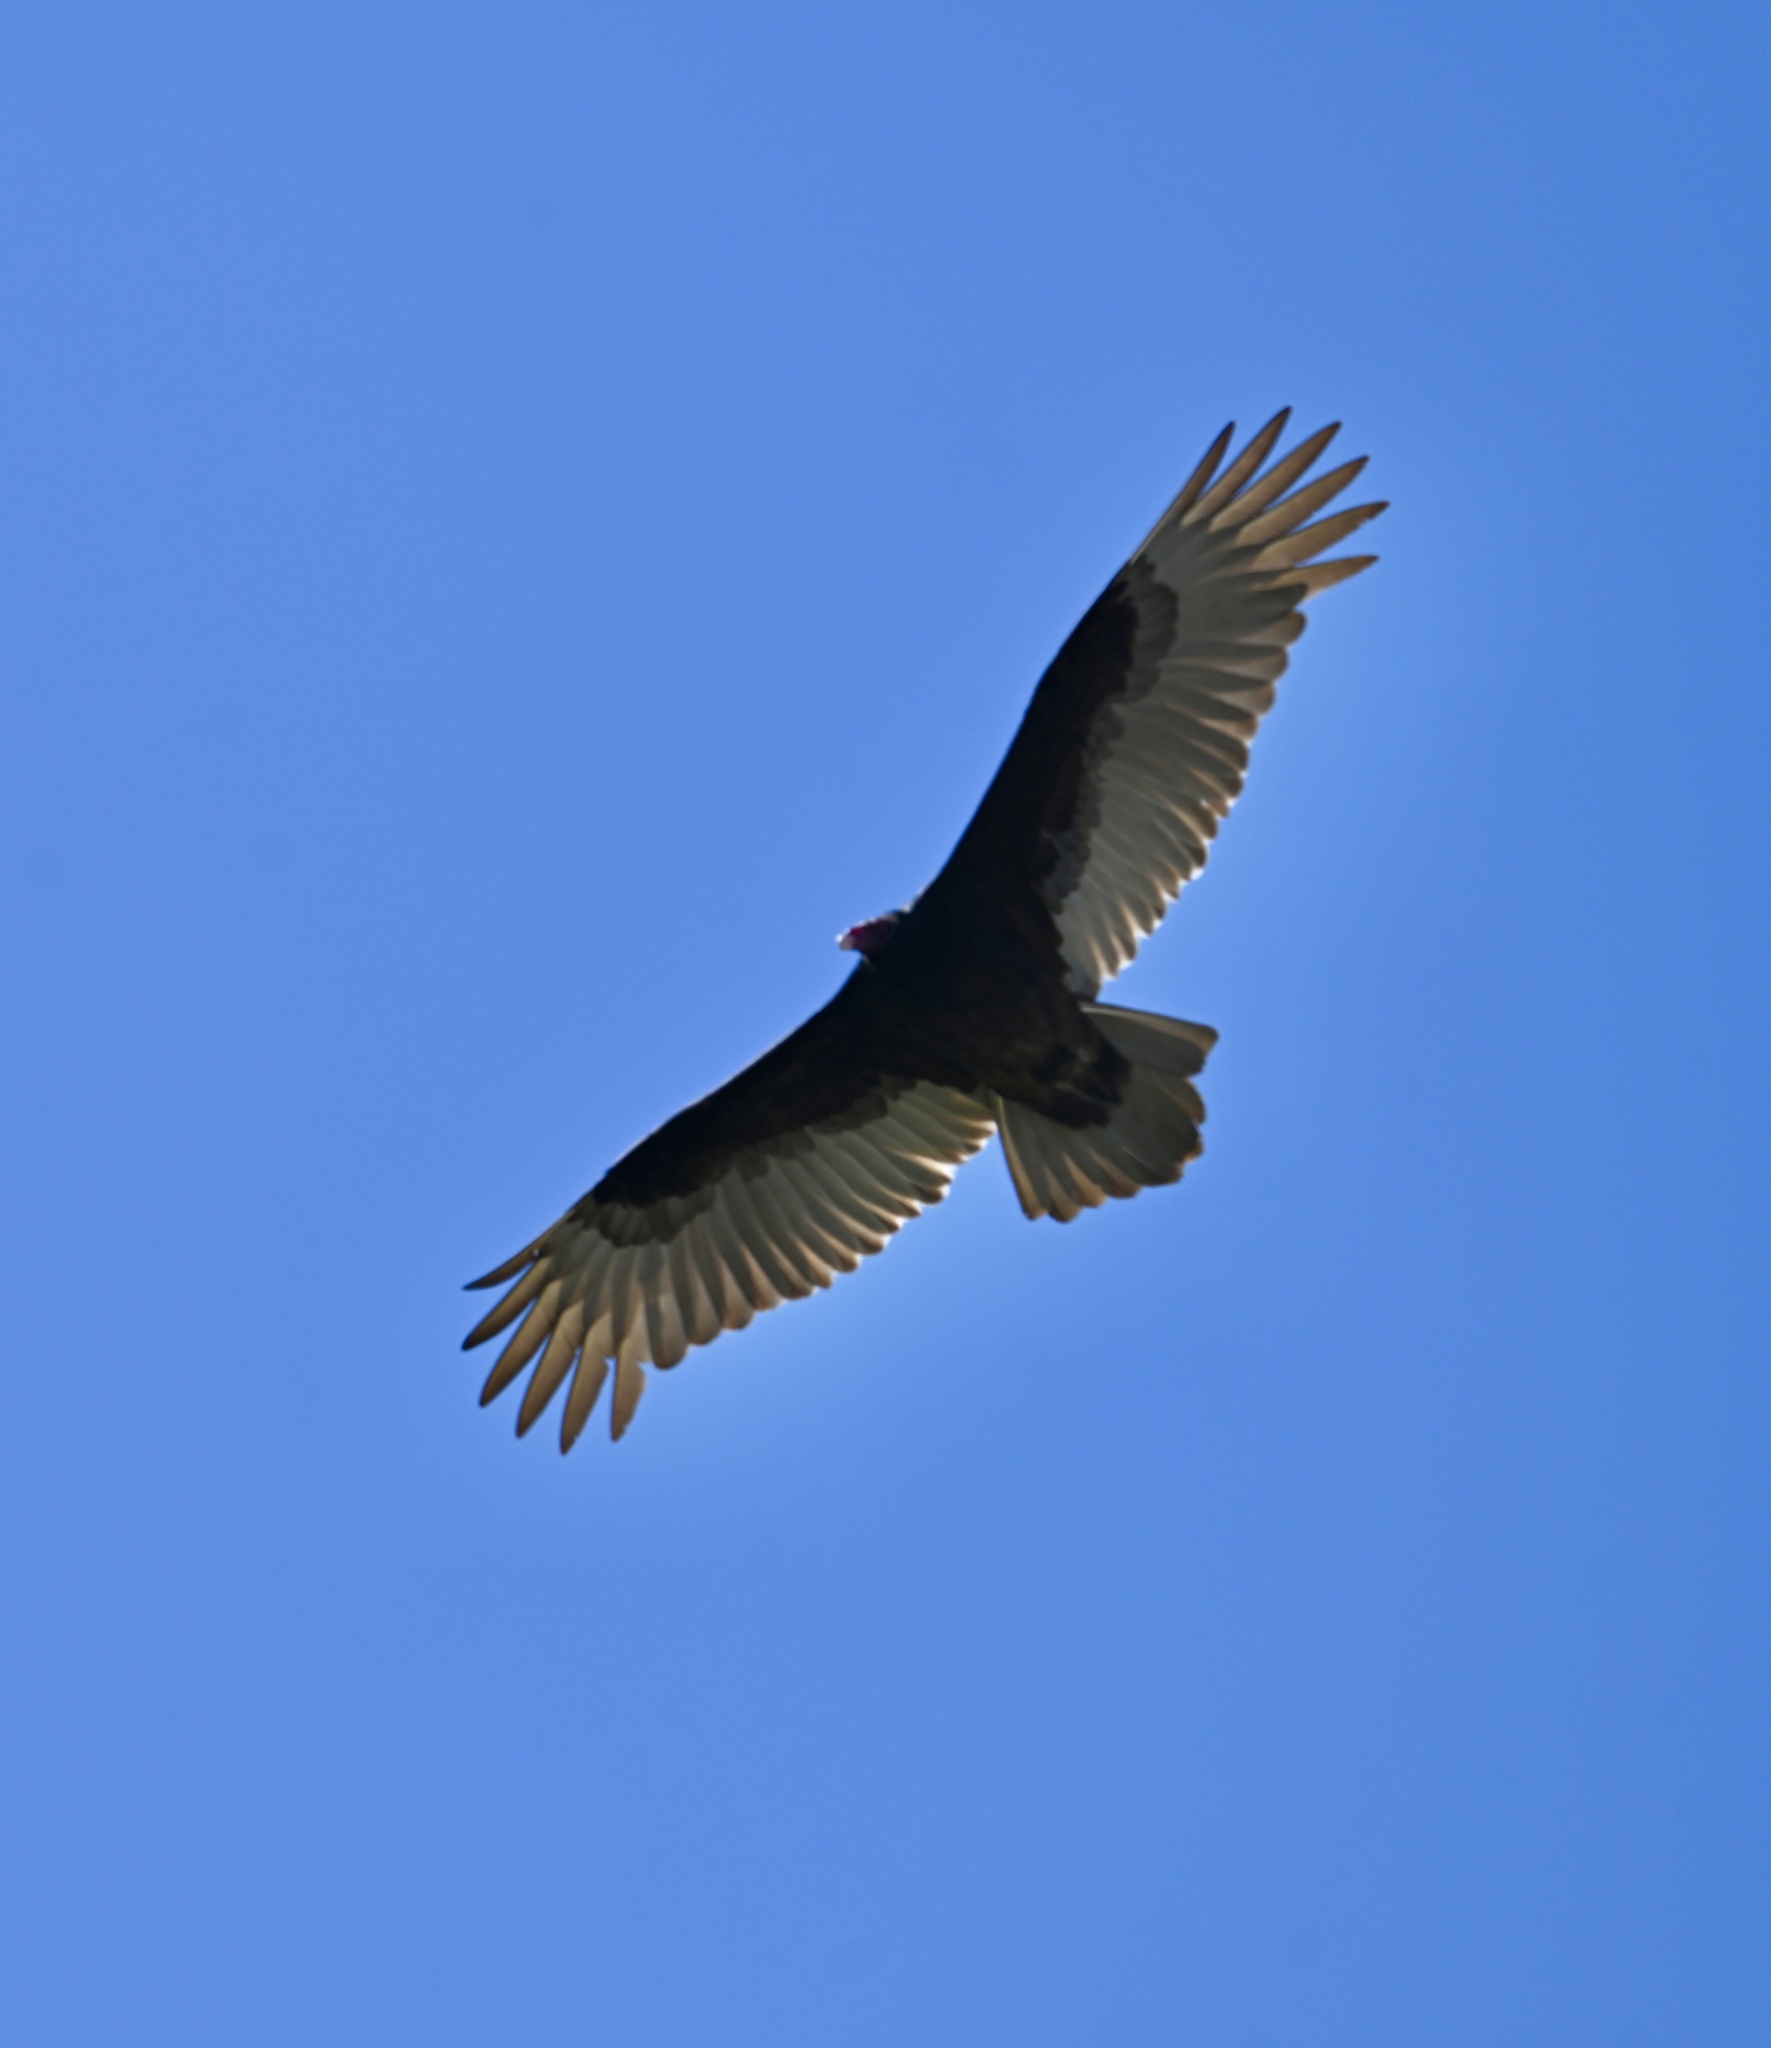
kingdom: Animalia
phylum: Chordata
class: Aves
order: Accipitriformes
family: Cathartidae
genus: Cathartes
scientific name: Cathartes aura
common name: Turkey vulture
